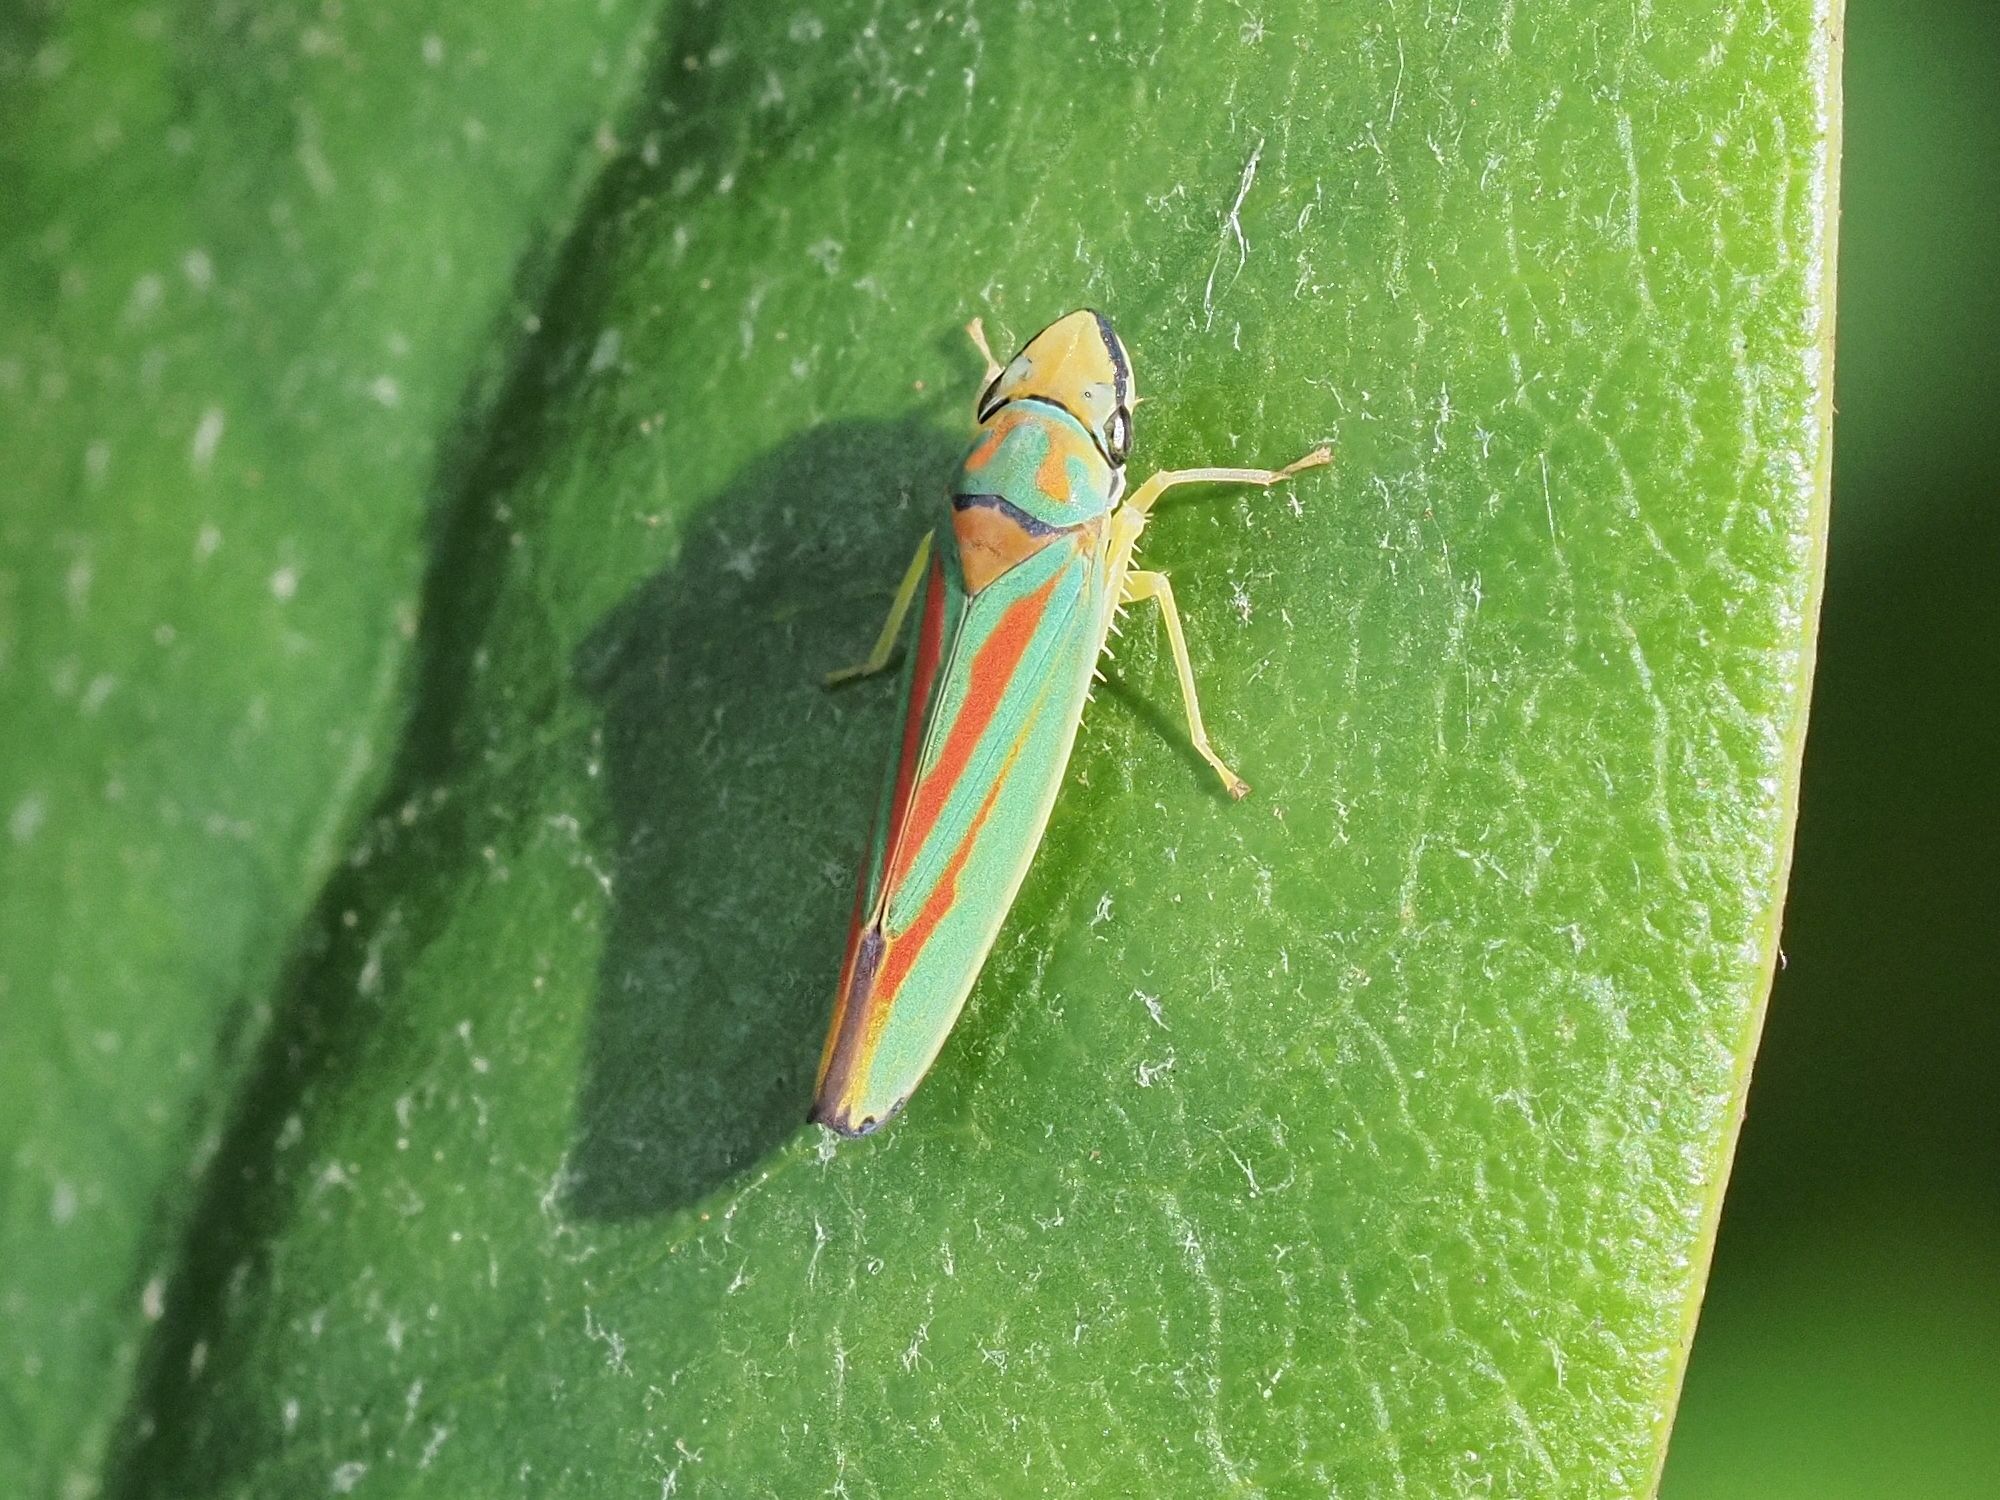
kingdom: Animalia
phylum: Arthropoda
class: Insecta
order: Hemiptera
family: Cicadellidae
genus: Graphocephala
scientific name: Graphocephala fennahi
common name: Rhododendron leafhopper
